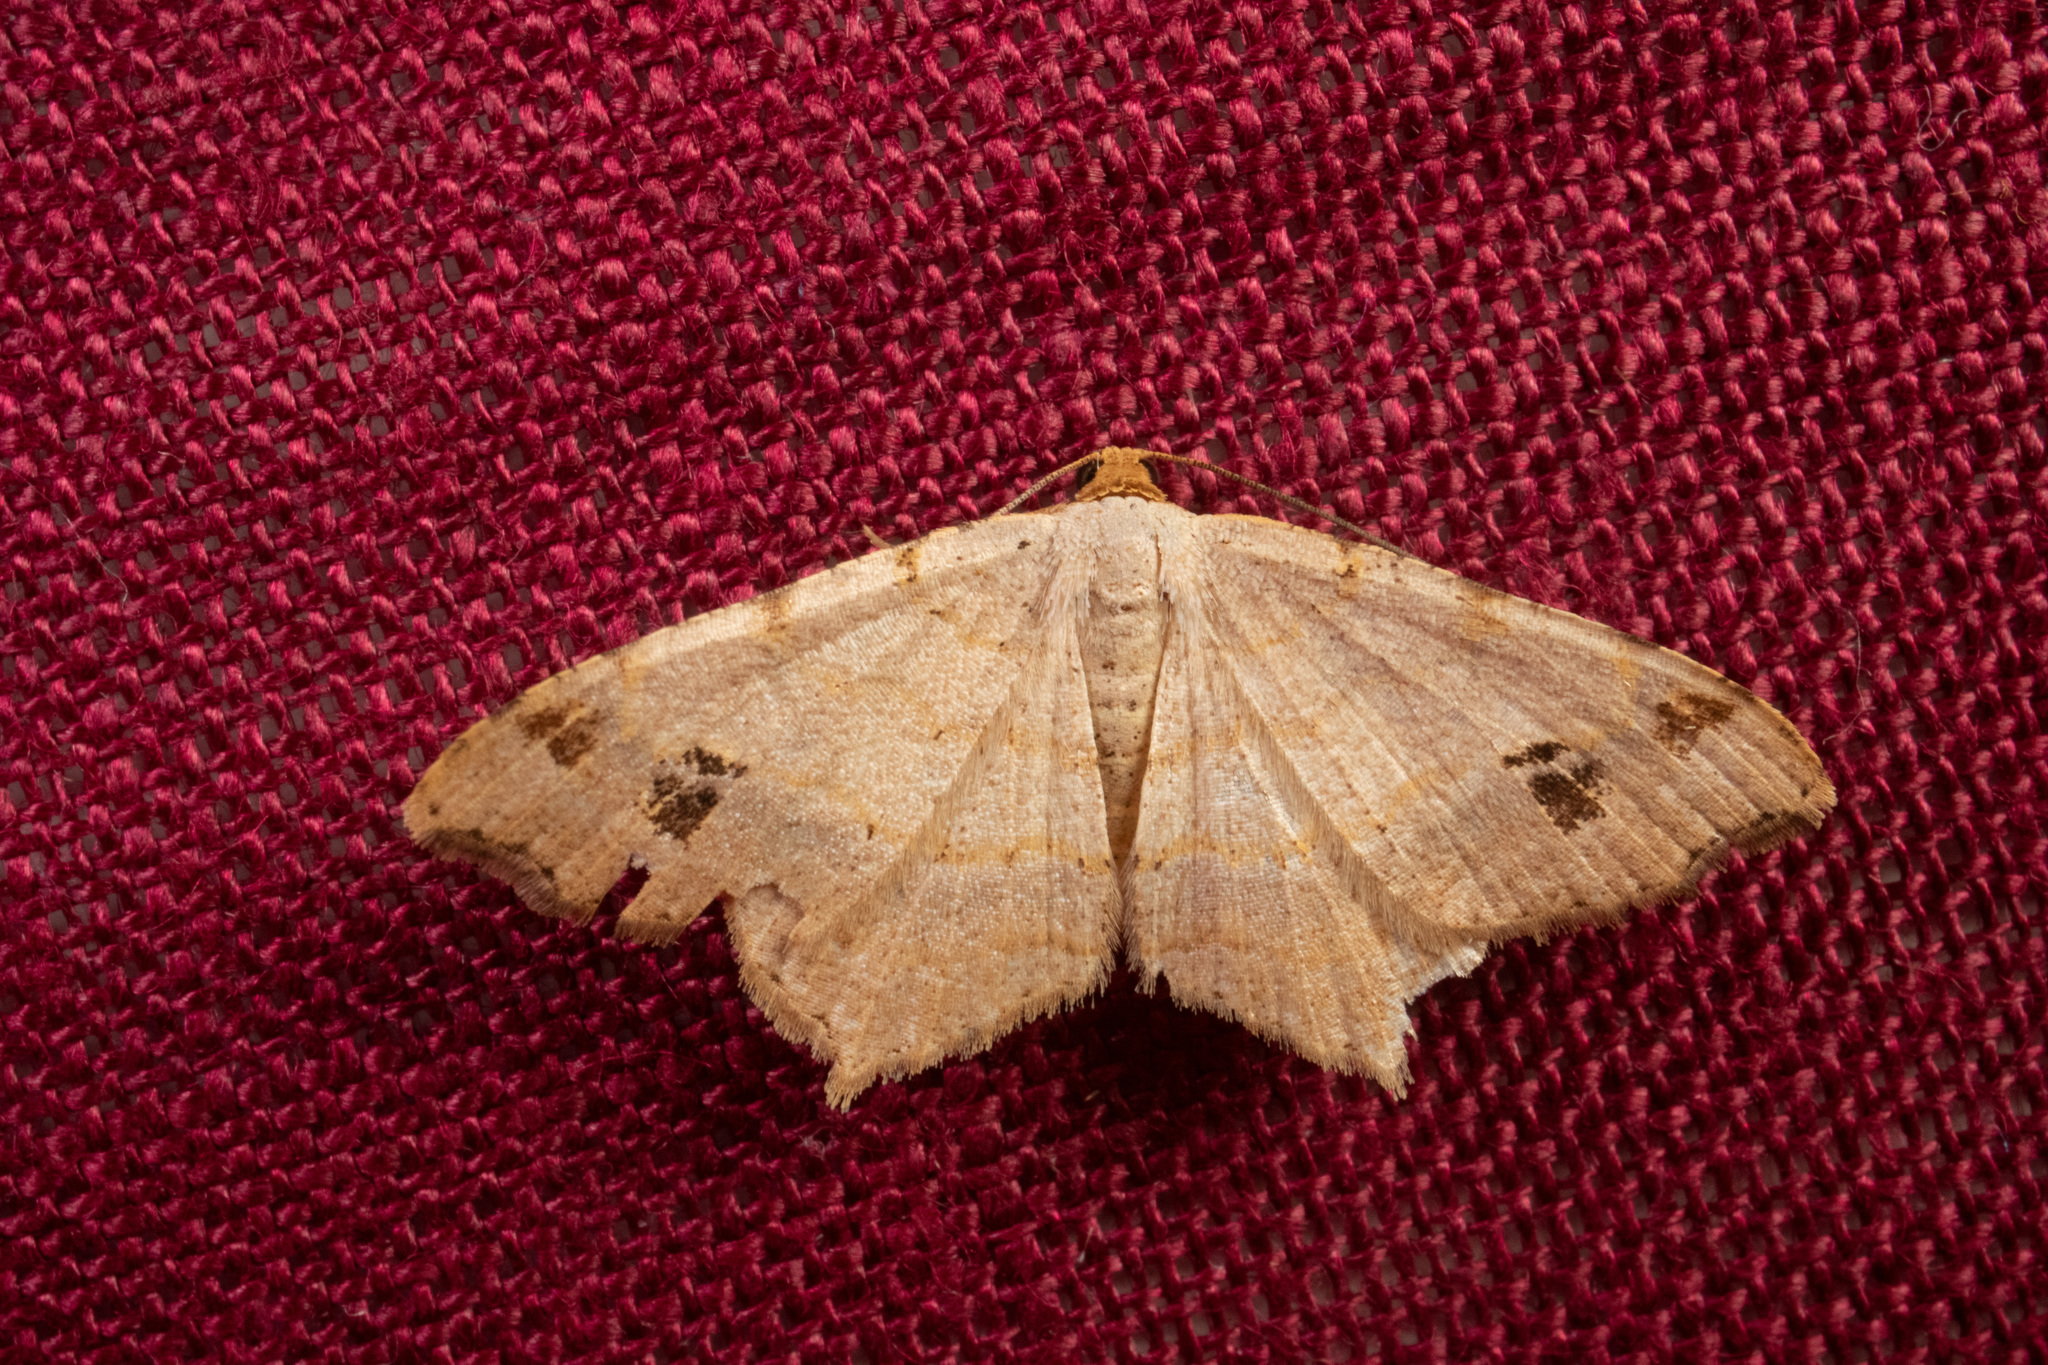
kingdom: Animalia
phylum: Arthropoda
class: Insecta
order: Lepidoptera
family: Geometridae
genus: Macaria
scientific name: Macaria aemulataria
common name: Common angle
